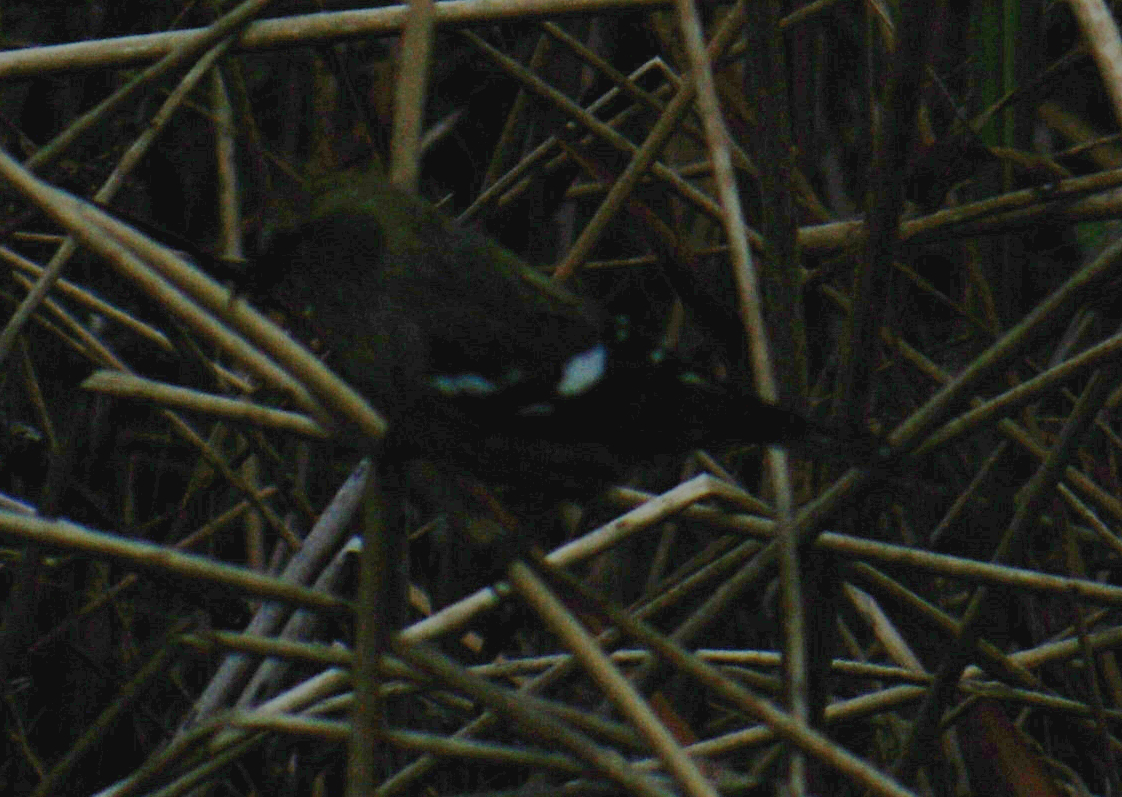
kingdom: Animalia
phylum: Chordata
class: Aves
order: Passeriformes
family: Fringillidae
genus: Loxia
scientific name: Loxia leucoptera
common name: Two-barred crossbill
